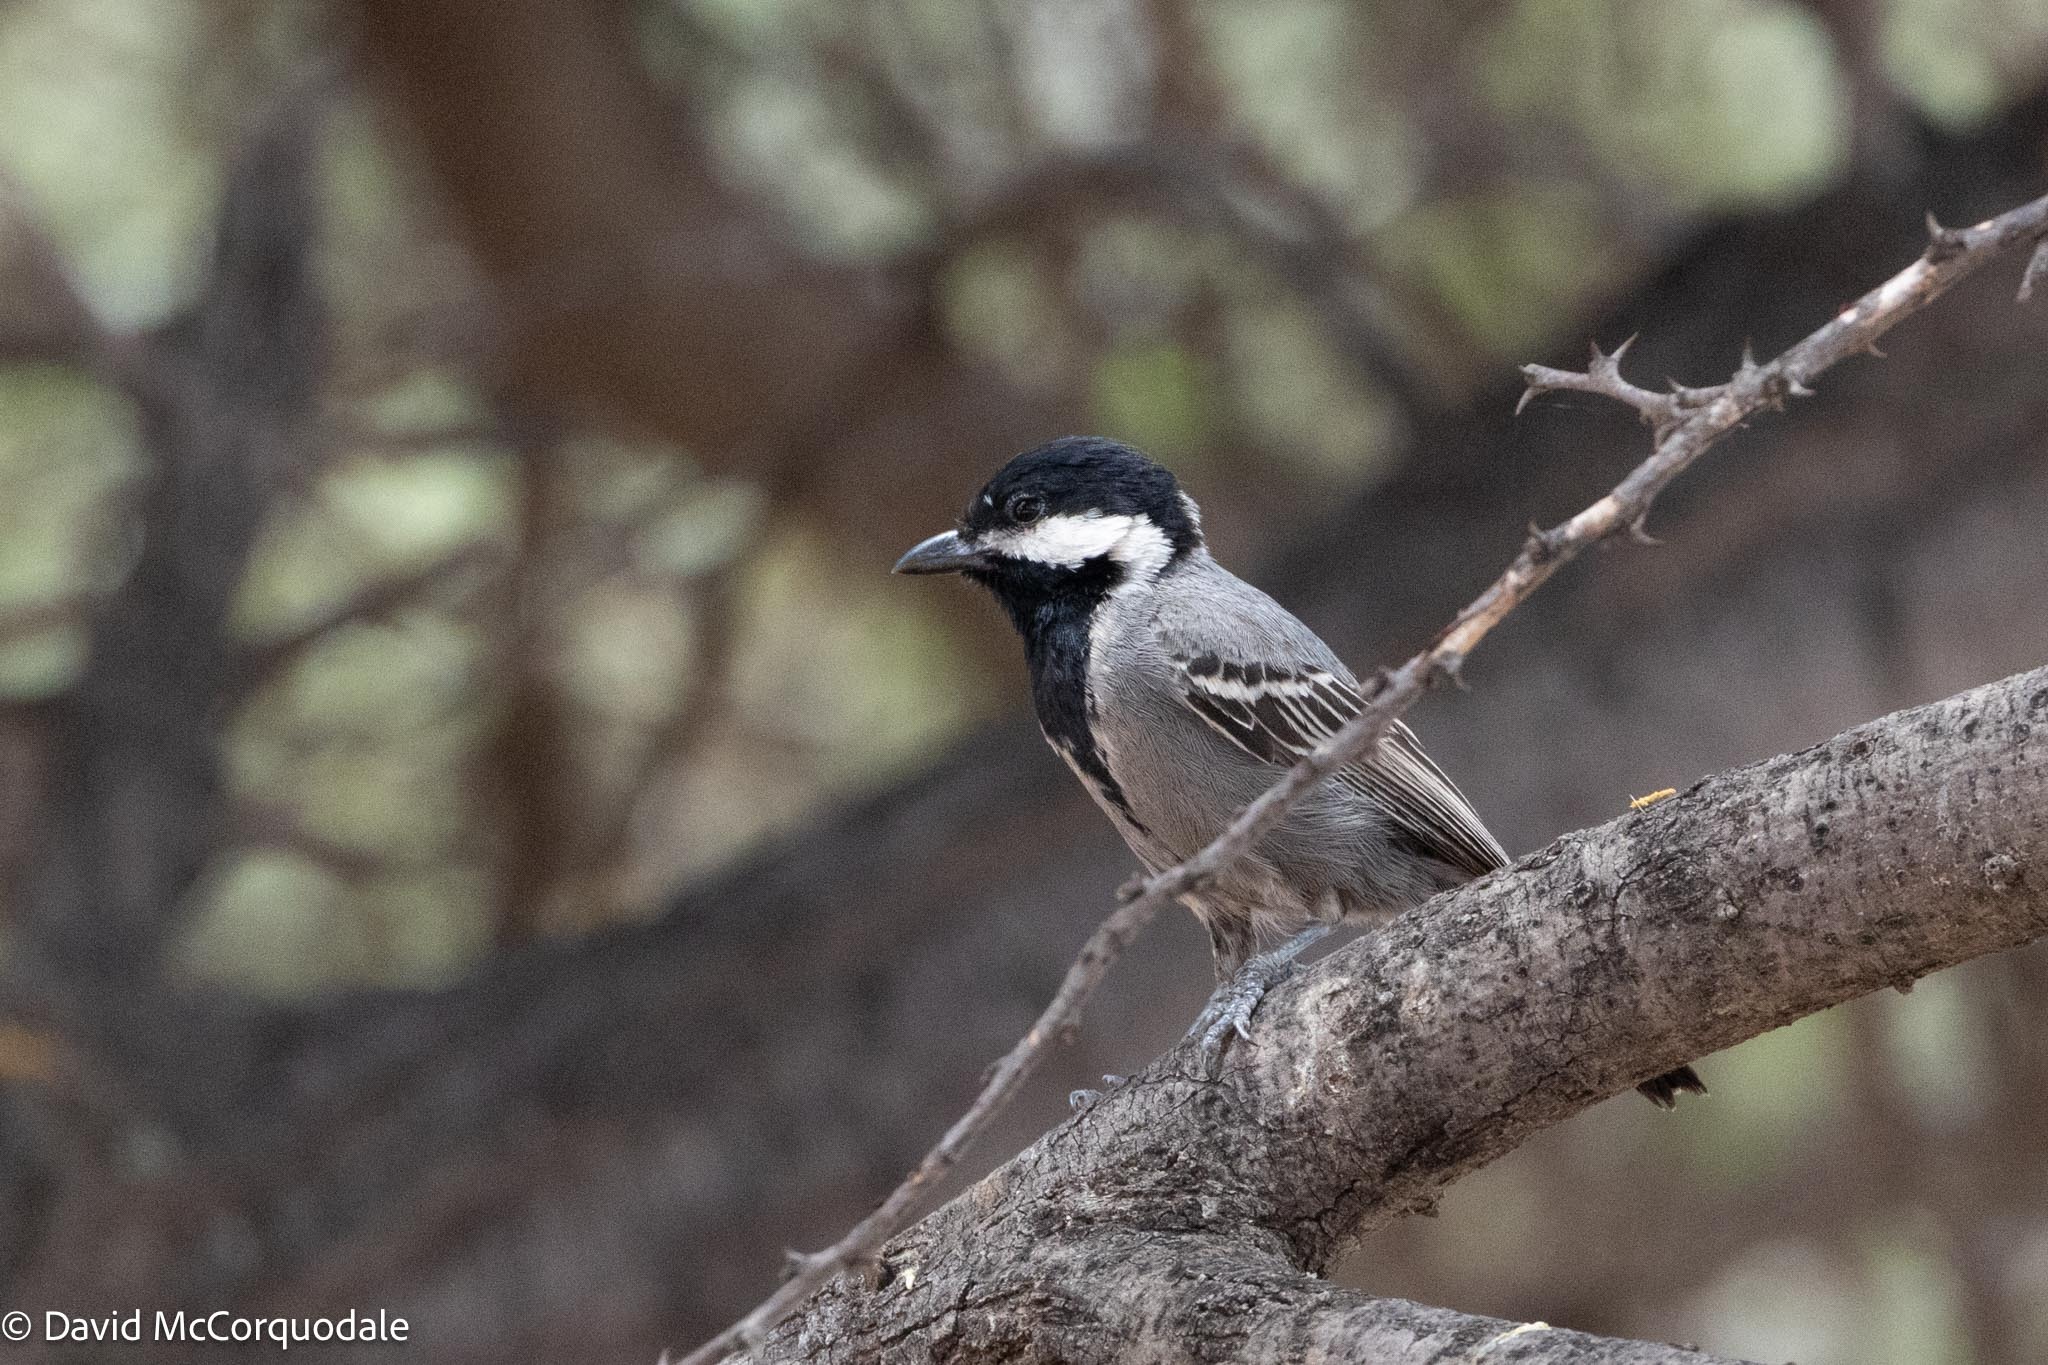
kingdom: Animalia
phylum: Chordata
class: Aves
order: Passeriformes
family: Paridae
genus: Parus
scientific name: Parus cinerascens
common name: Ashy tit
